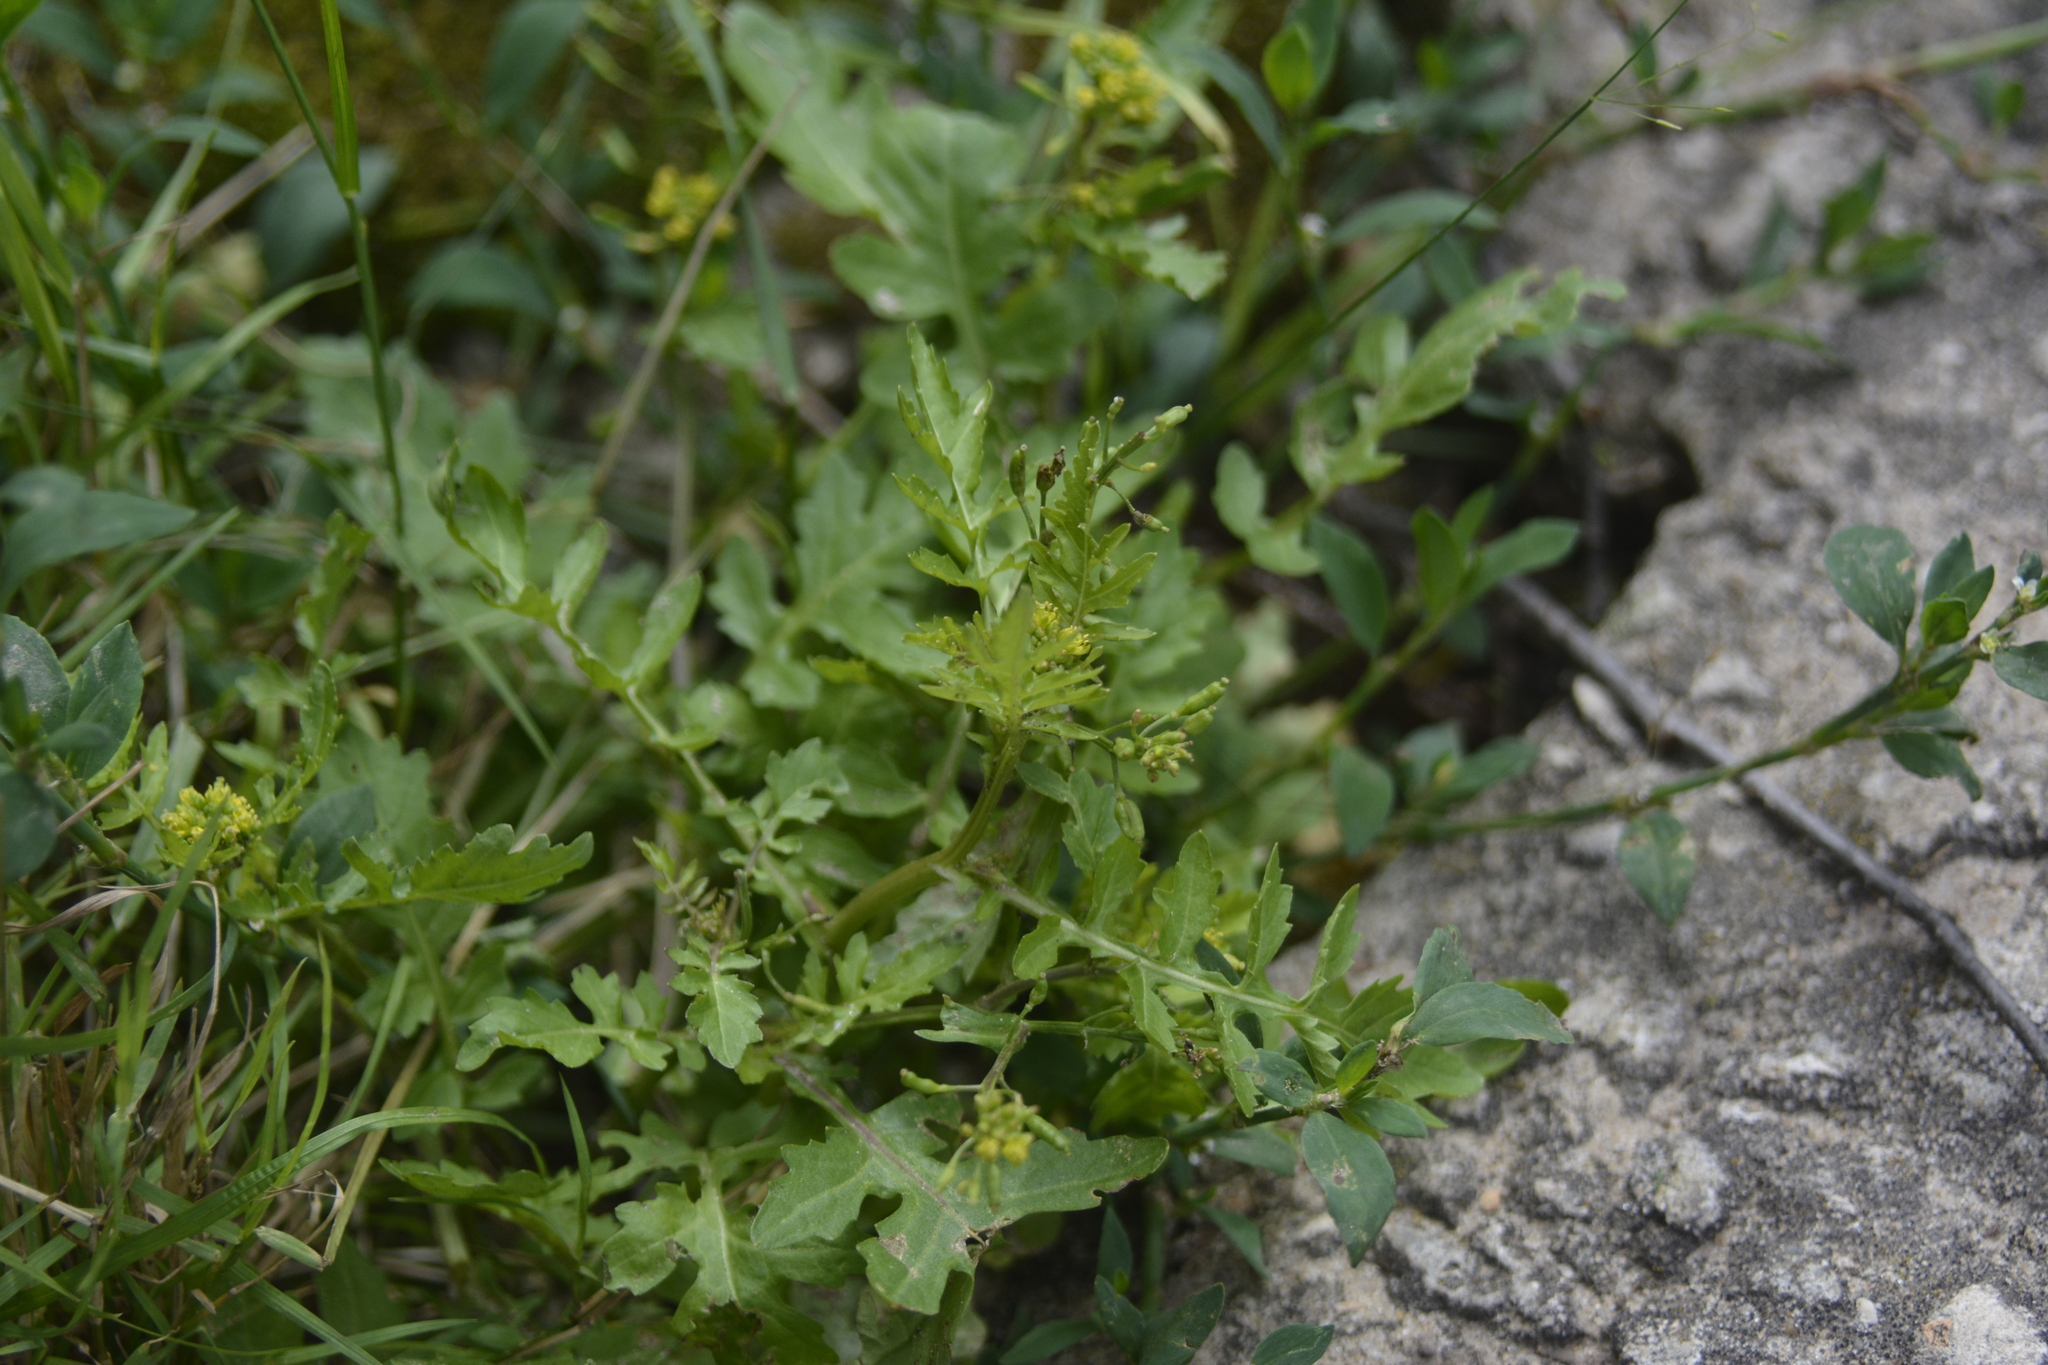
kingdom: Plantae
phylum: Tracheophyta
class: Magnoliopsida
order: Brassicales
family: Brassicaceae
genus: Rorippa
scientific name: Rorippa palustris
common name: Marsh yellow-cress
